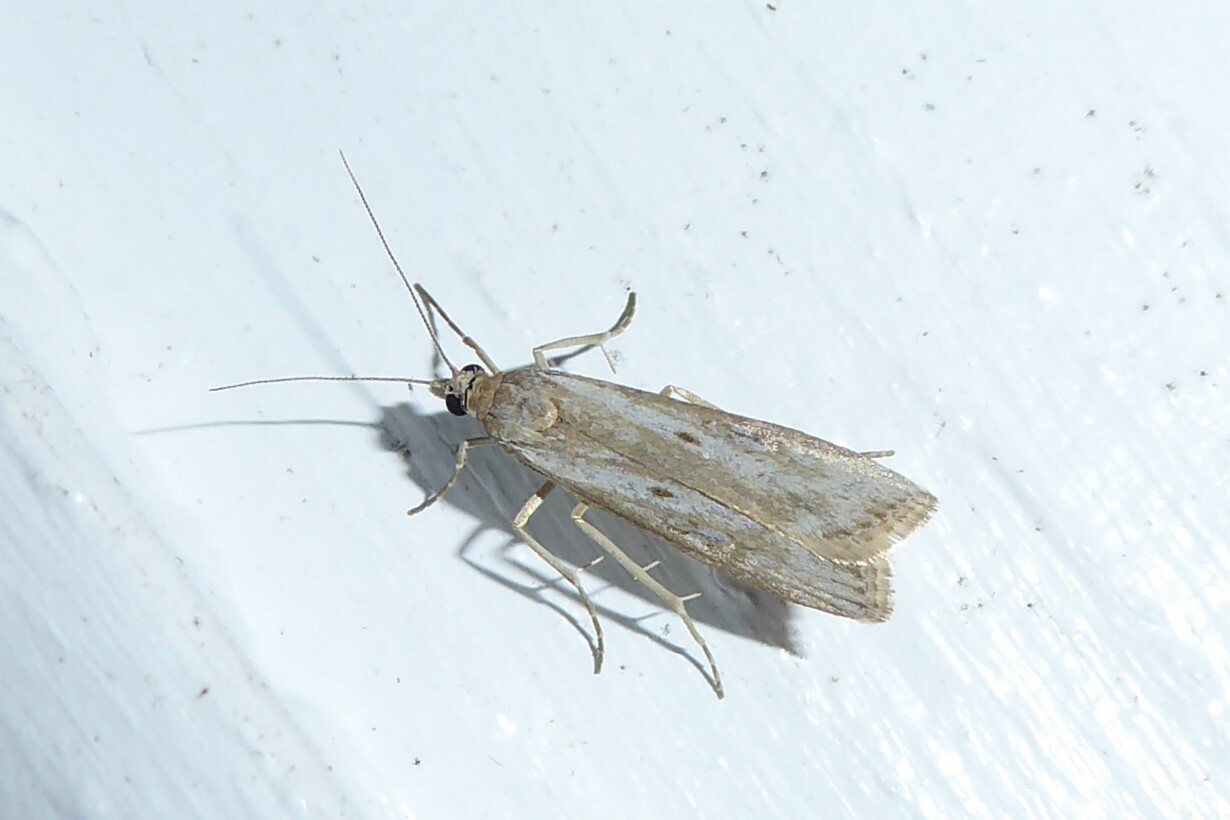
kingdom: Animalia
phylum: Arthropoda
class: Insecta
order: Lepidoptera
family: Crambidae
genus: Eudonia
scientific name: Eudonia leptalea
